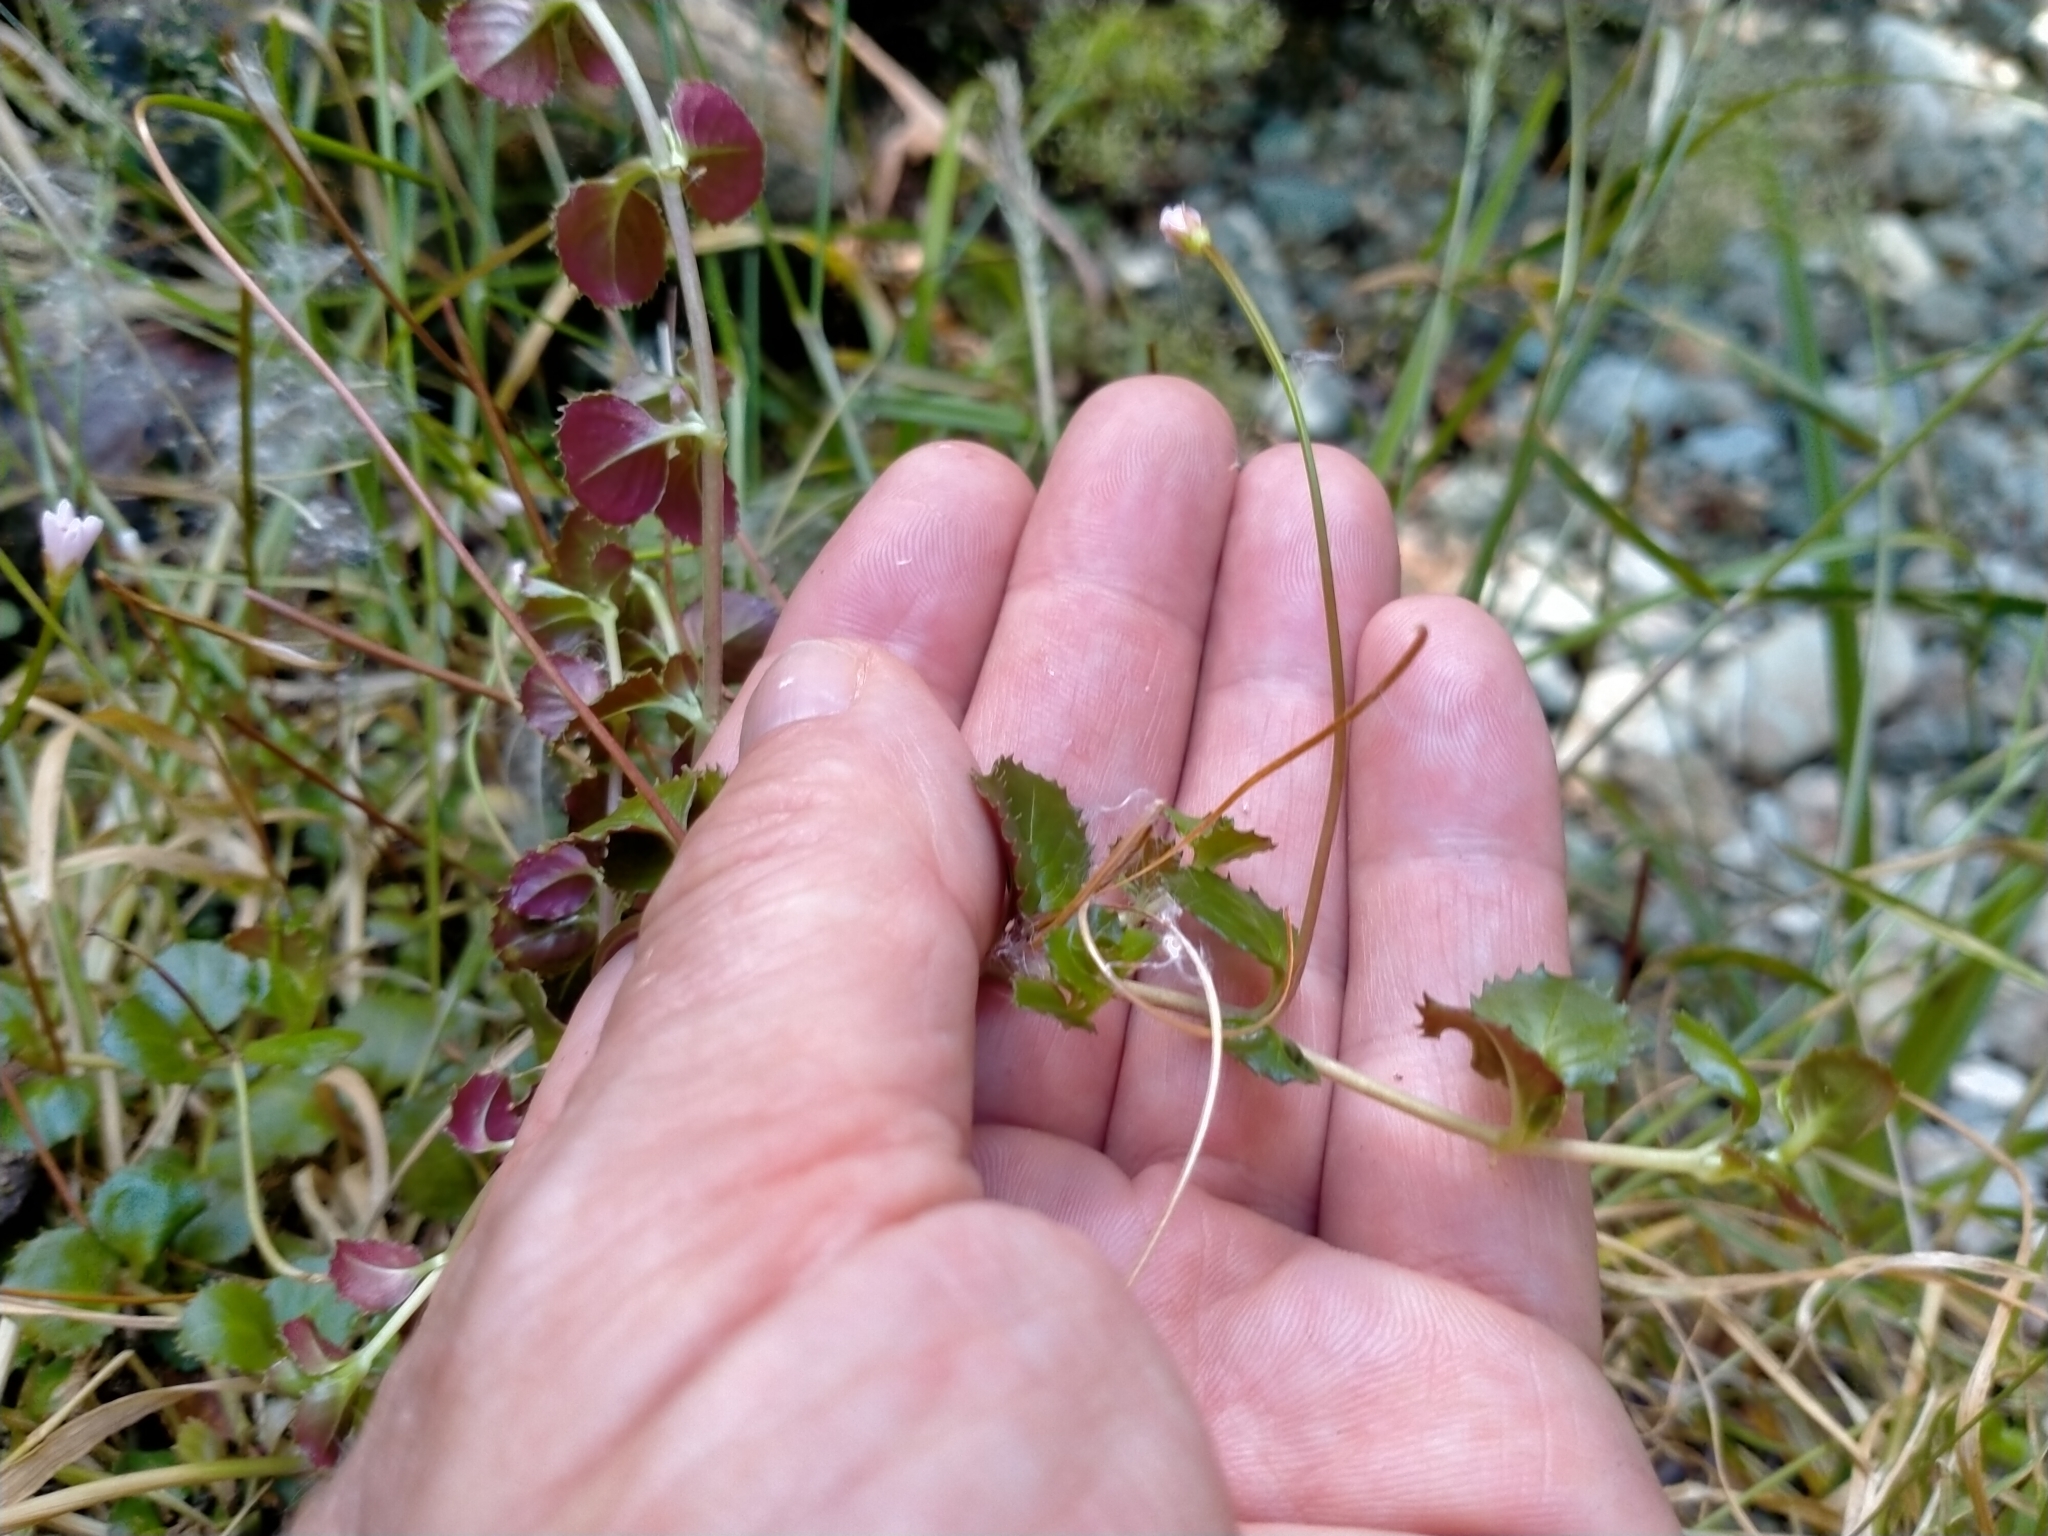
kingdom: Plantae
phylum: Tracheophyta
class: Magnoliopsida
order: Myrtales
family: Onagraceae
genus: Epilobium
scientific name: Epilobium pedunculare
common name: Rockery willowherb
